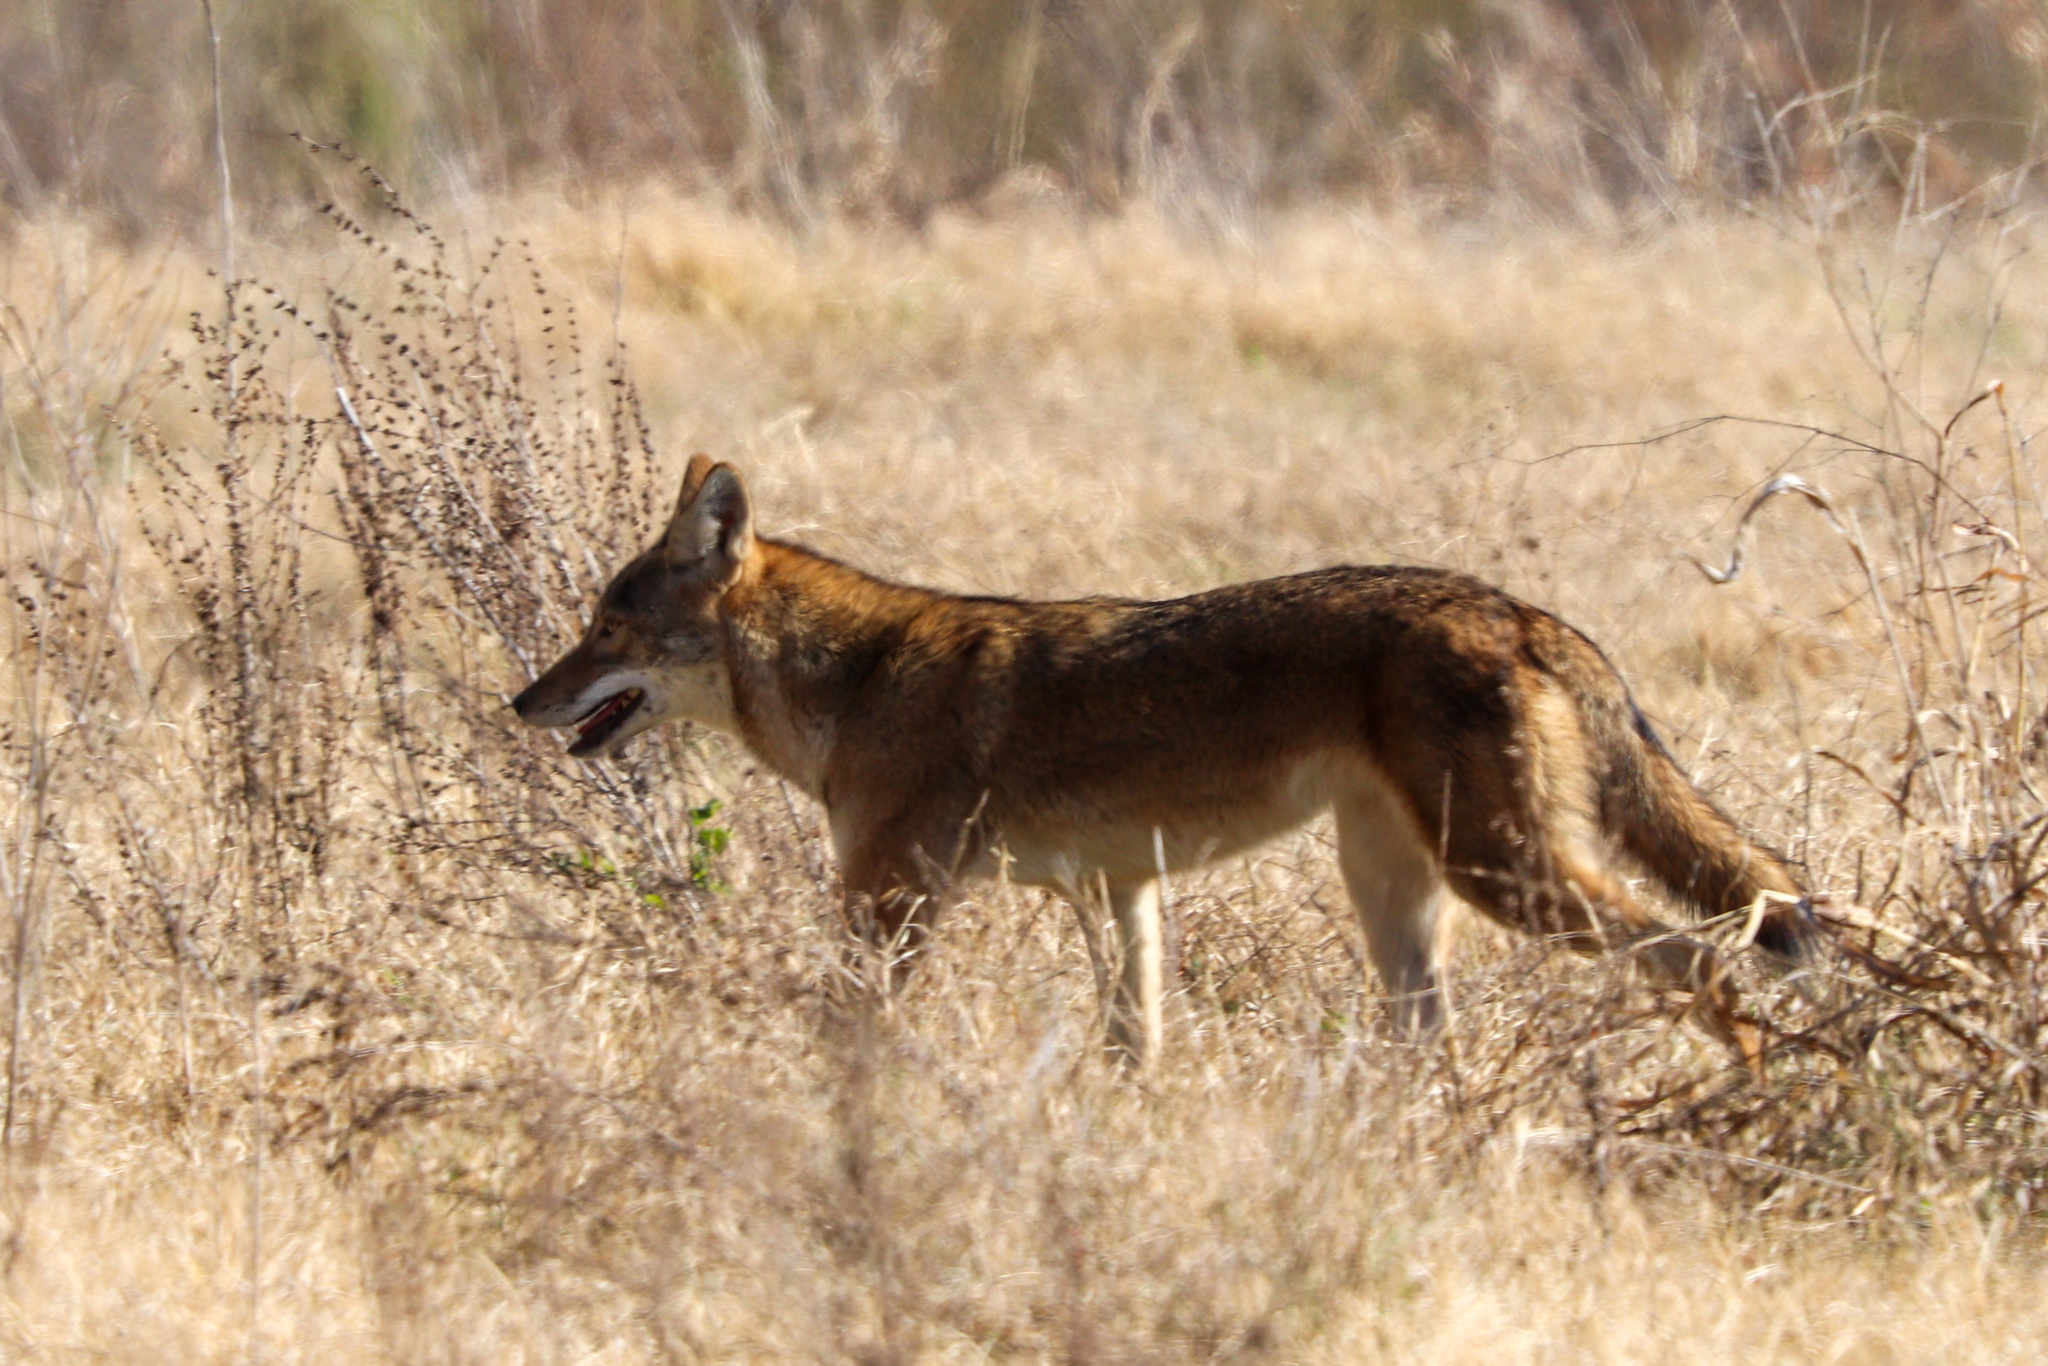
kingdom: Animalia
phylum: Chordata
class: Mammalia
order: Carnivora
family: Canidae
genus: Canis
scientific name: Canis latrans
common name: Coyote
